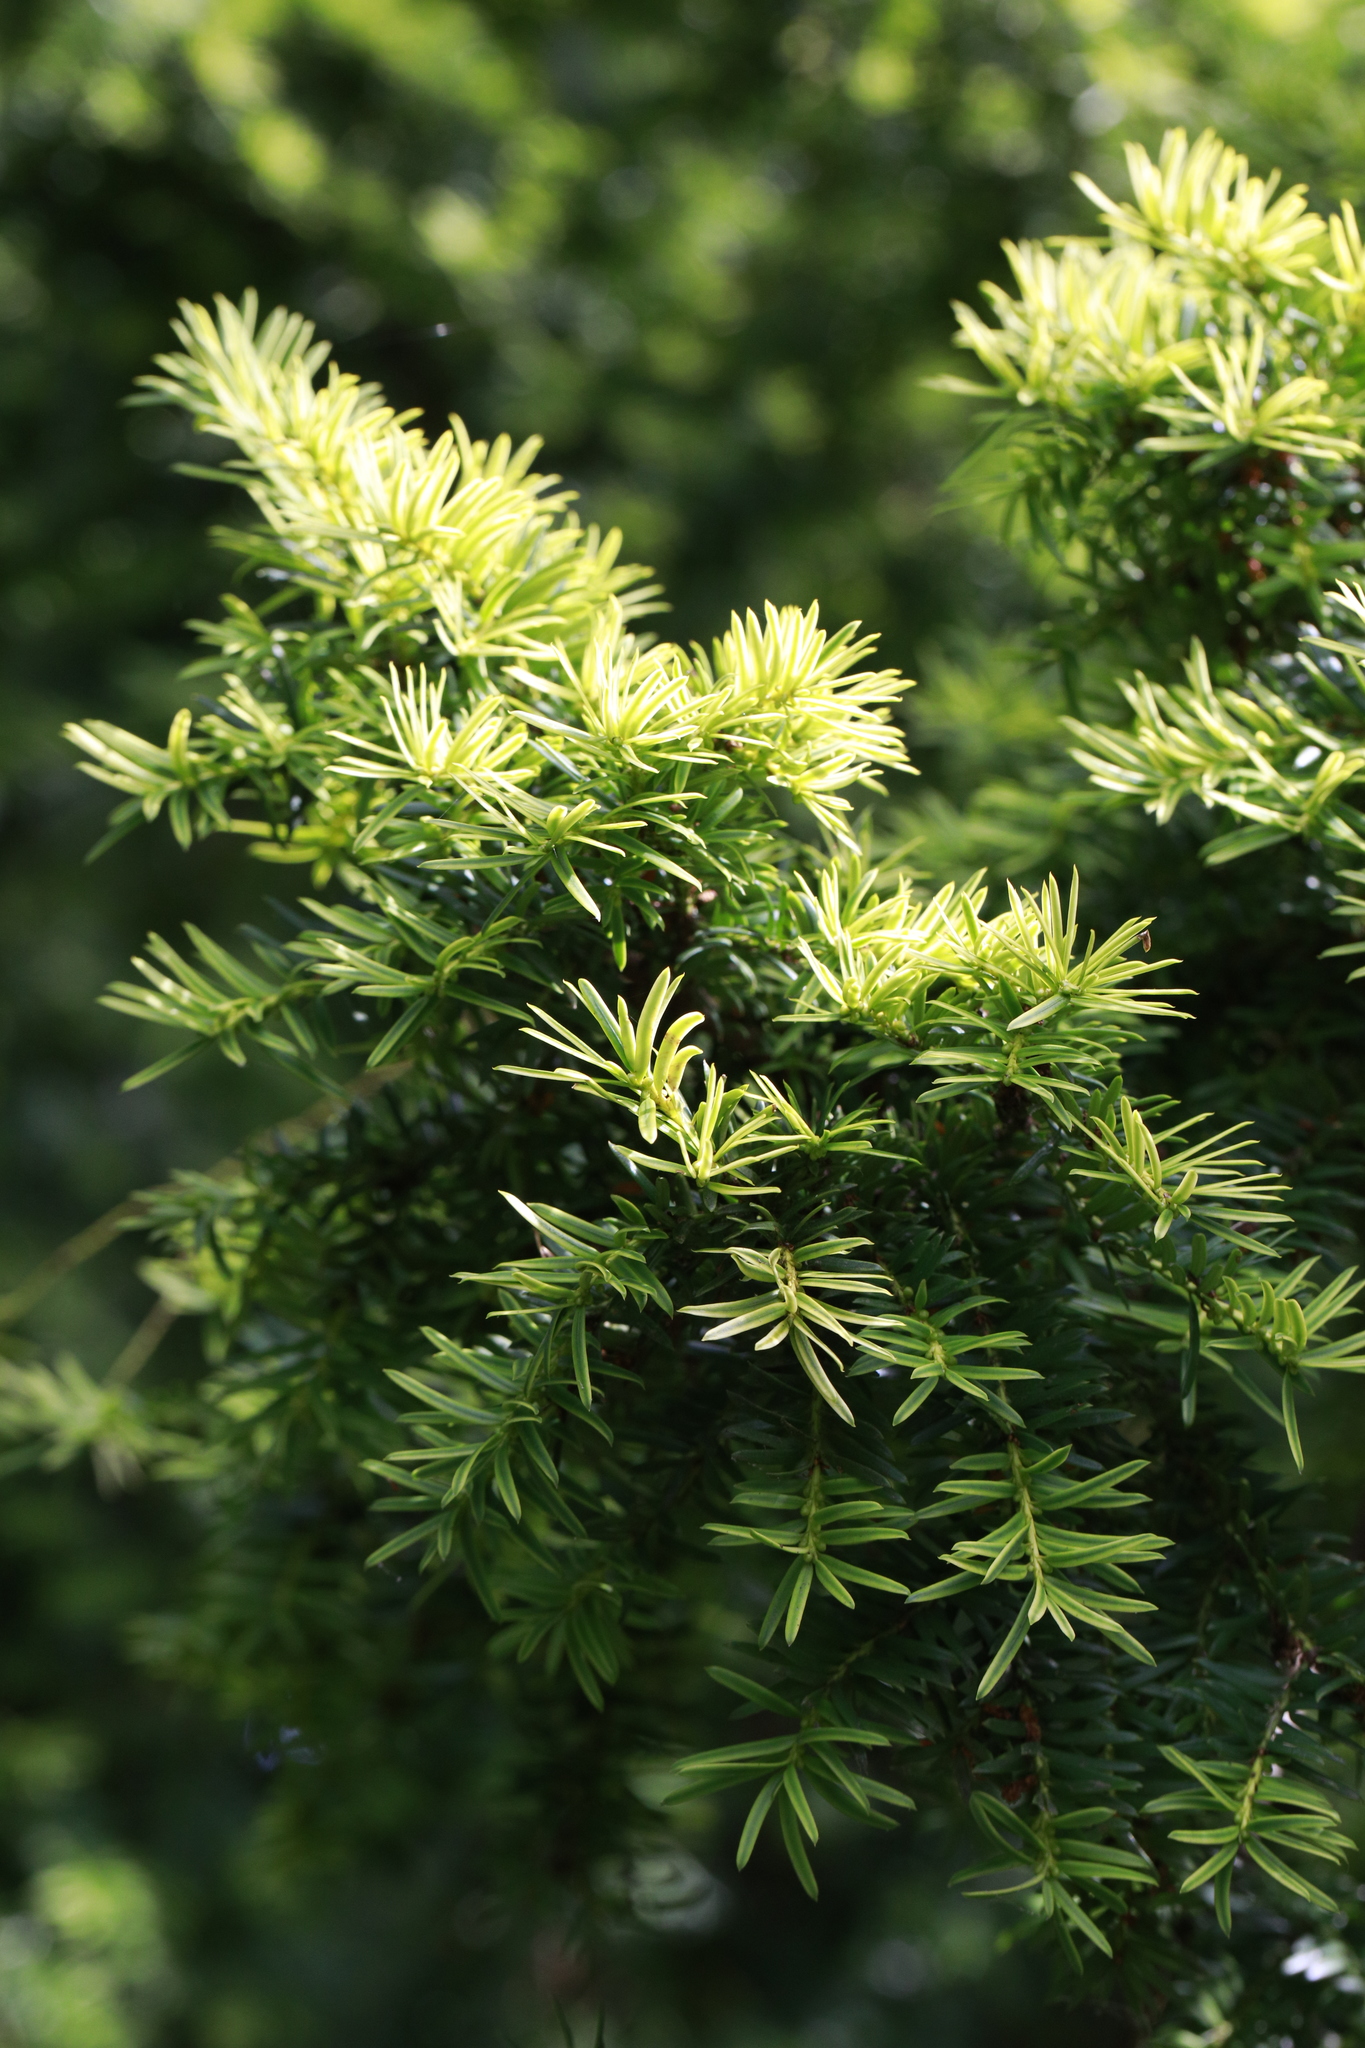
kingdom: Plantae
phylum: Tracheophyta
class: Pinopsida
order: Pinales
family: Taxaceae
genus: Taxus
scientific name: Taxus baccata
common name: Yew
